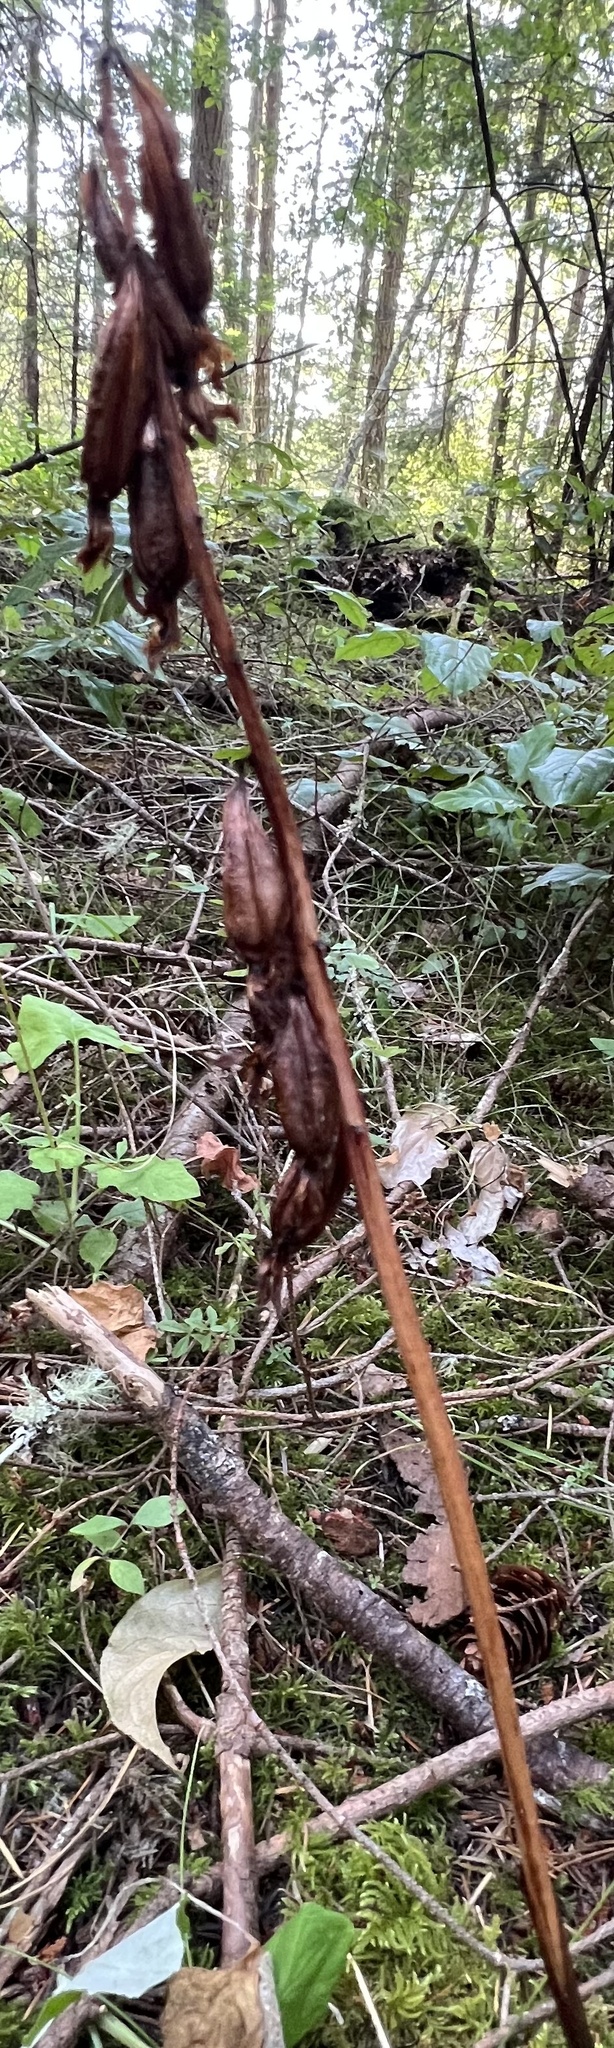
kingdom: Plantae
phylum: Tracheophyta
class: Liliopsida
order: Asparagales
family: Orchidaceae
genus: Corallorhiza
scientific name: Corallorhiza maculata
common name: Spotted coralroot
